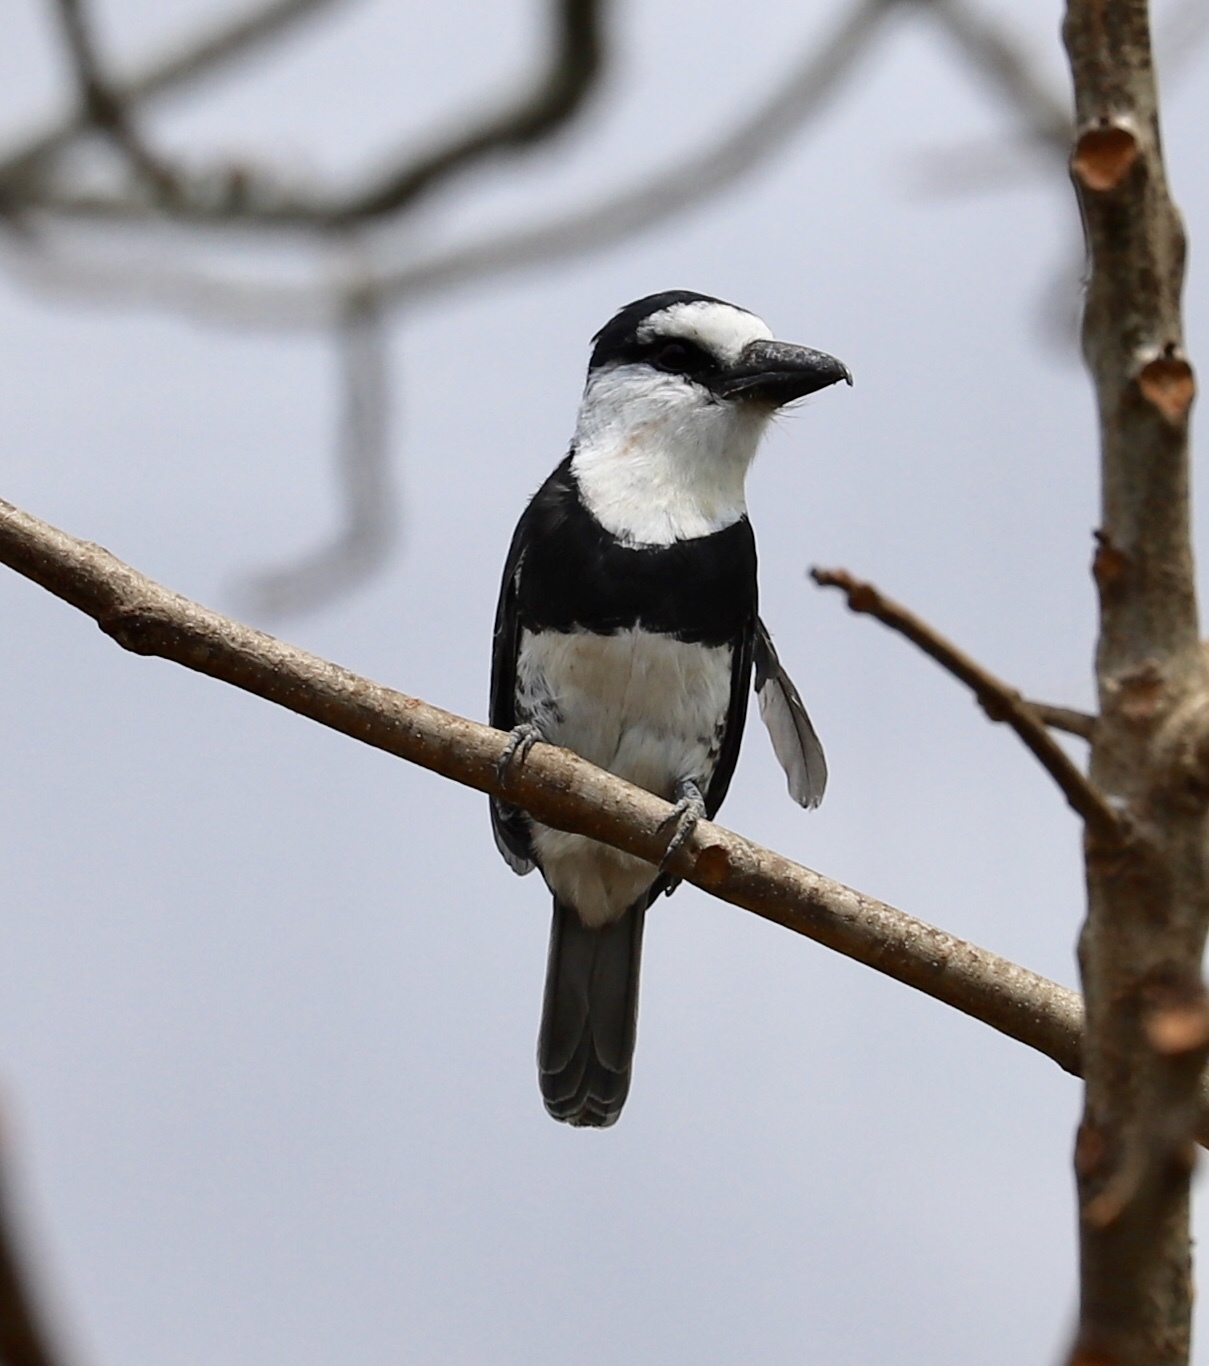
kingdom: Animalia
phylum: Chordata
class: Aves
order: Piciformes
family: Bucconidae
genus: Notharchus
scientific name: Notharchus hyperrhynchus
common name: White-necked puffbird
